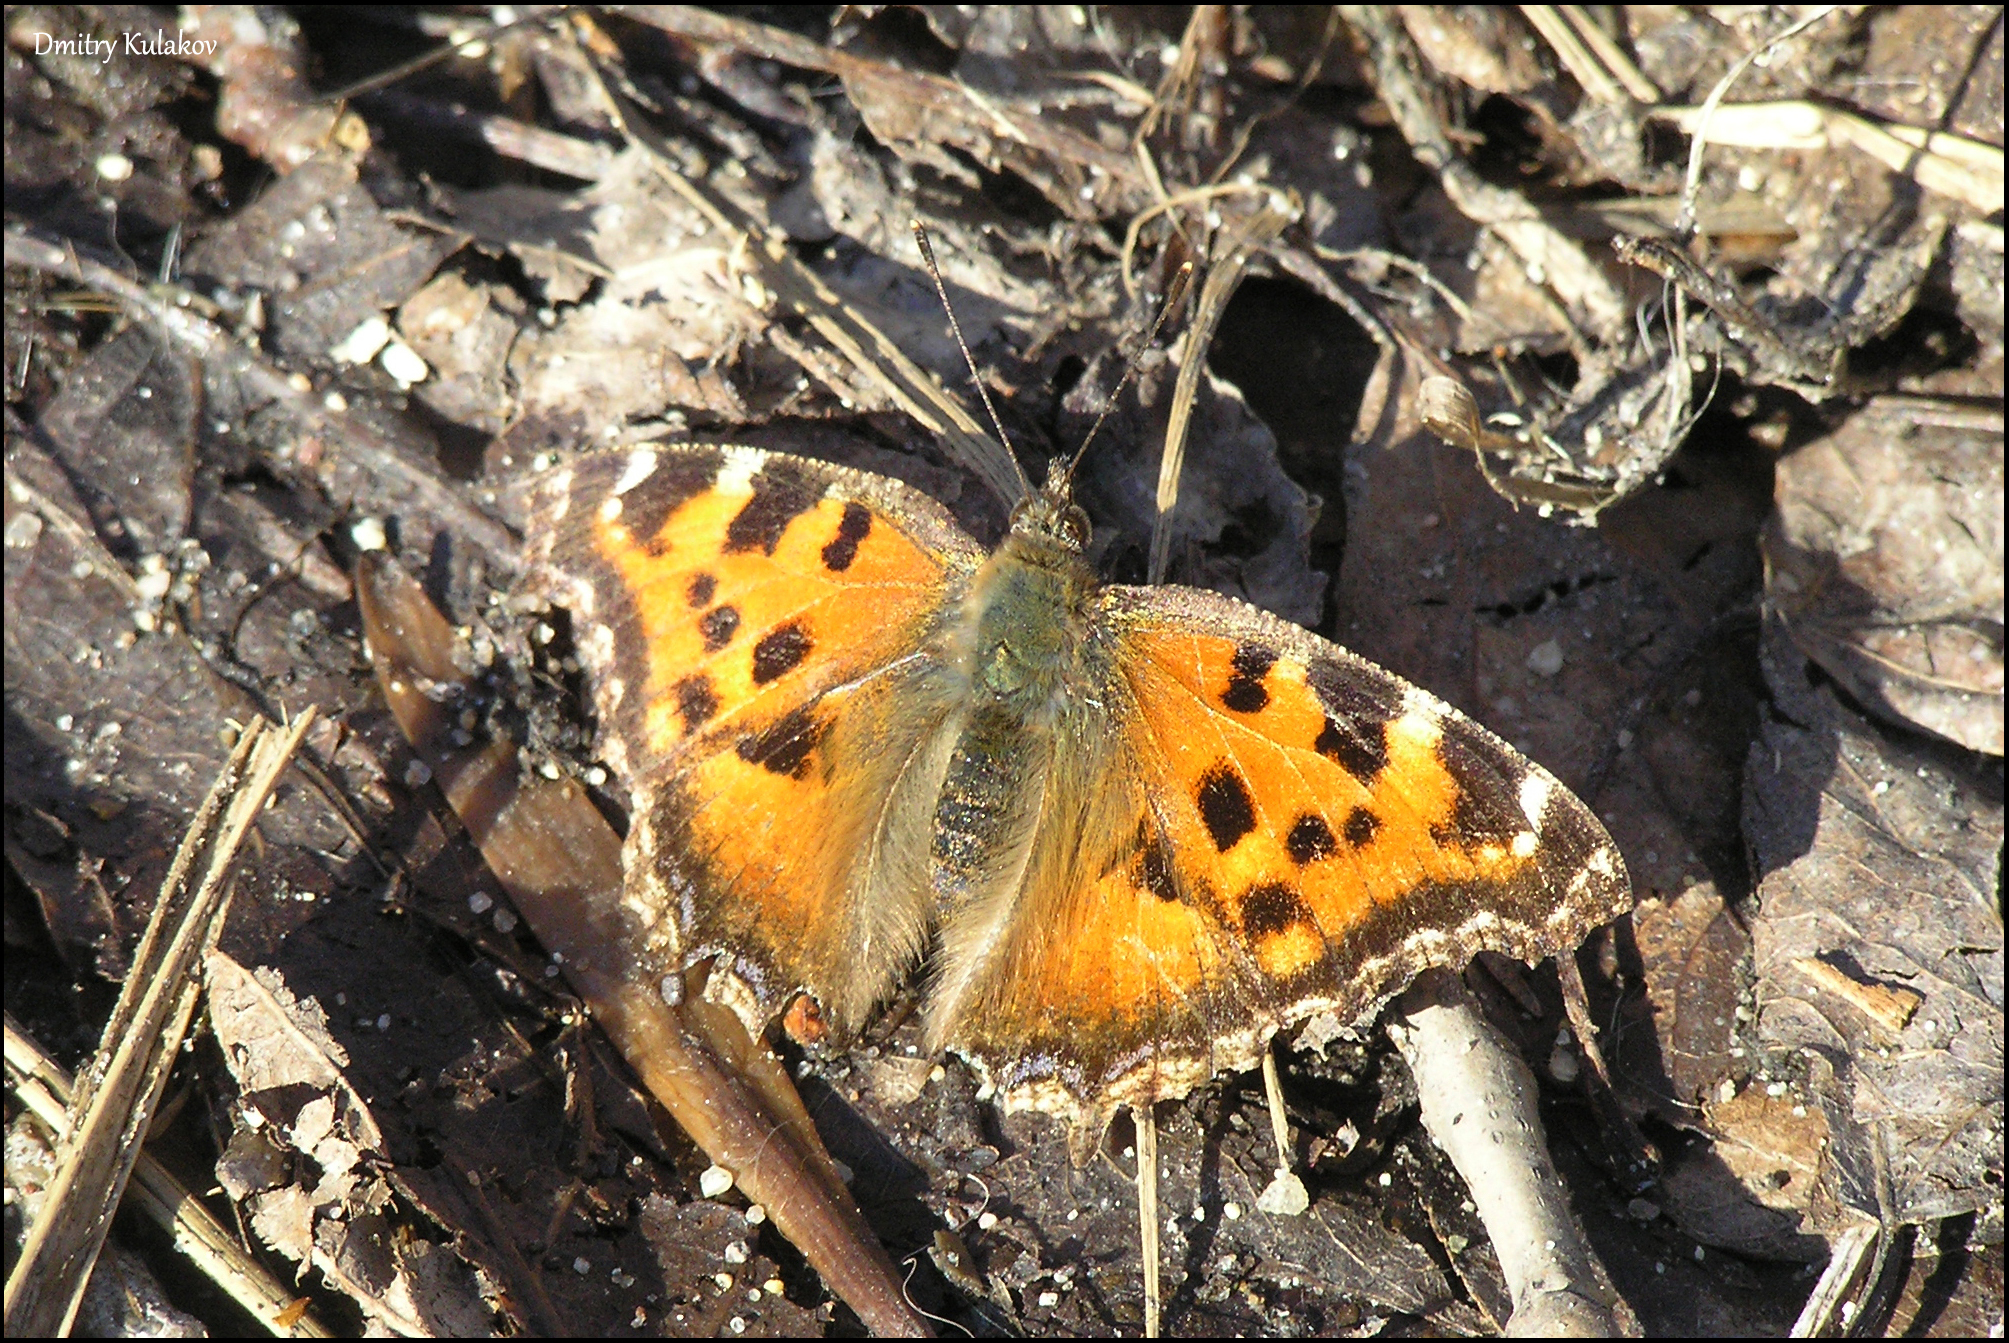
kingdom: Animalia
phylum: Arthropoda
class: Insecta
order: Lepidoptera
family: Nymphalidae
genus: Nymphalis
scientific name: Nymphalis xanthomelas
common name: Scarce tortoiseshell
